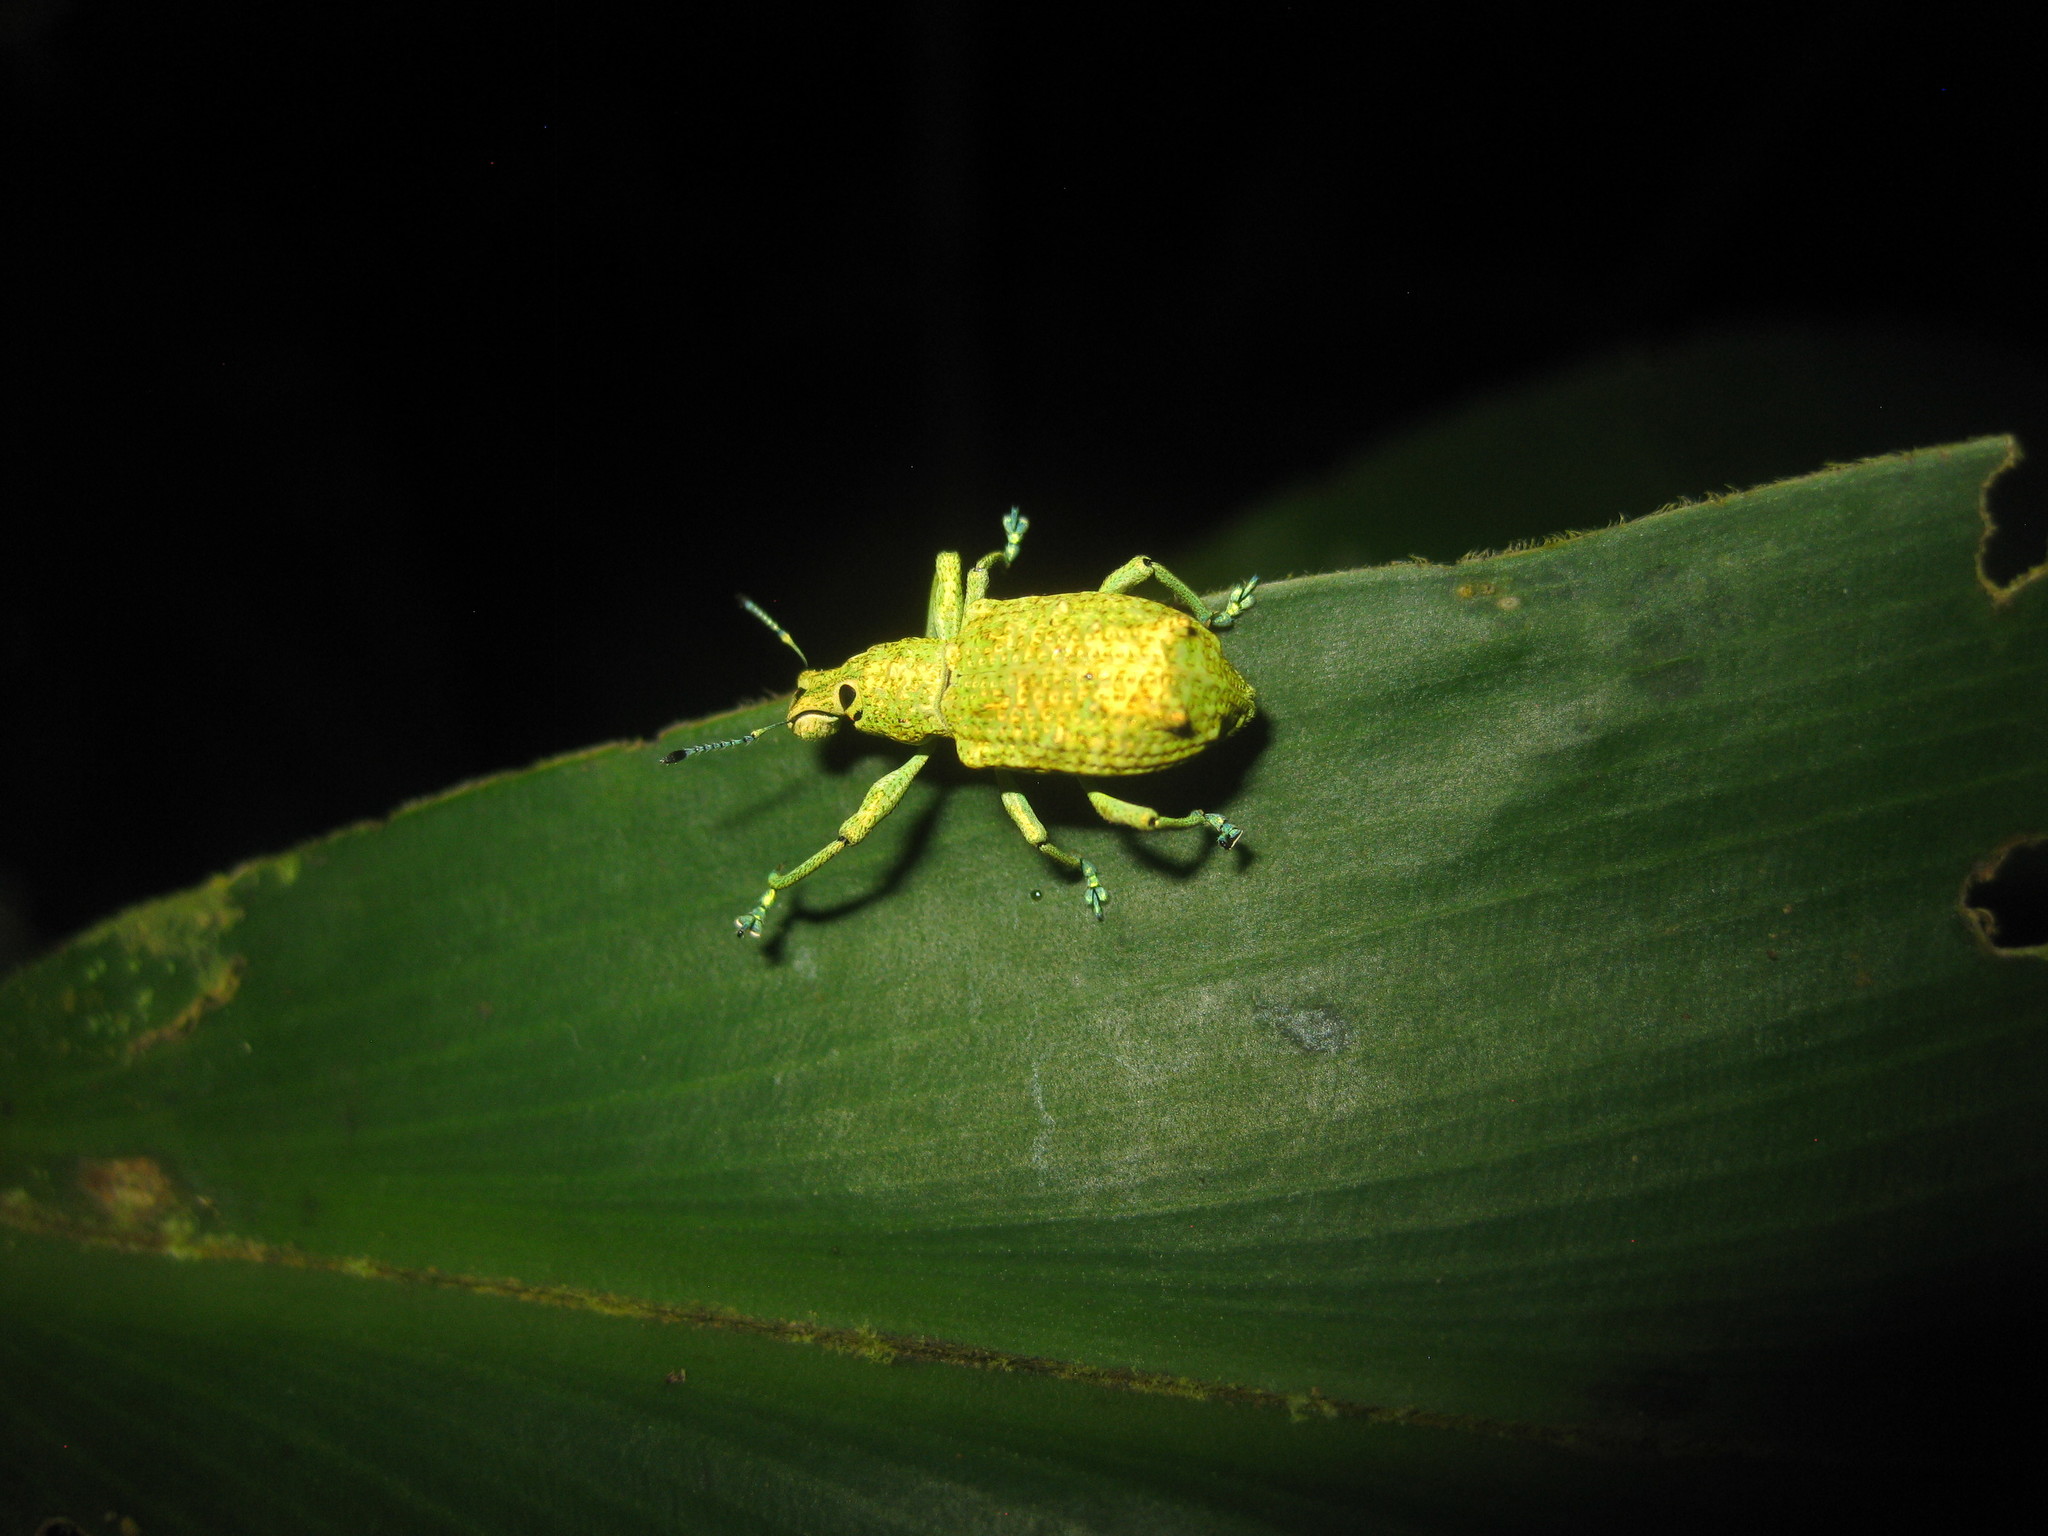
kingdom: Animalia
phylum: Arthropoda
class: Insecta
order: Coleoptera
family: Curculionidae
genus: Rhigus
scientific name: Rhigus speciosus
